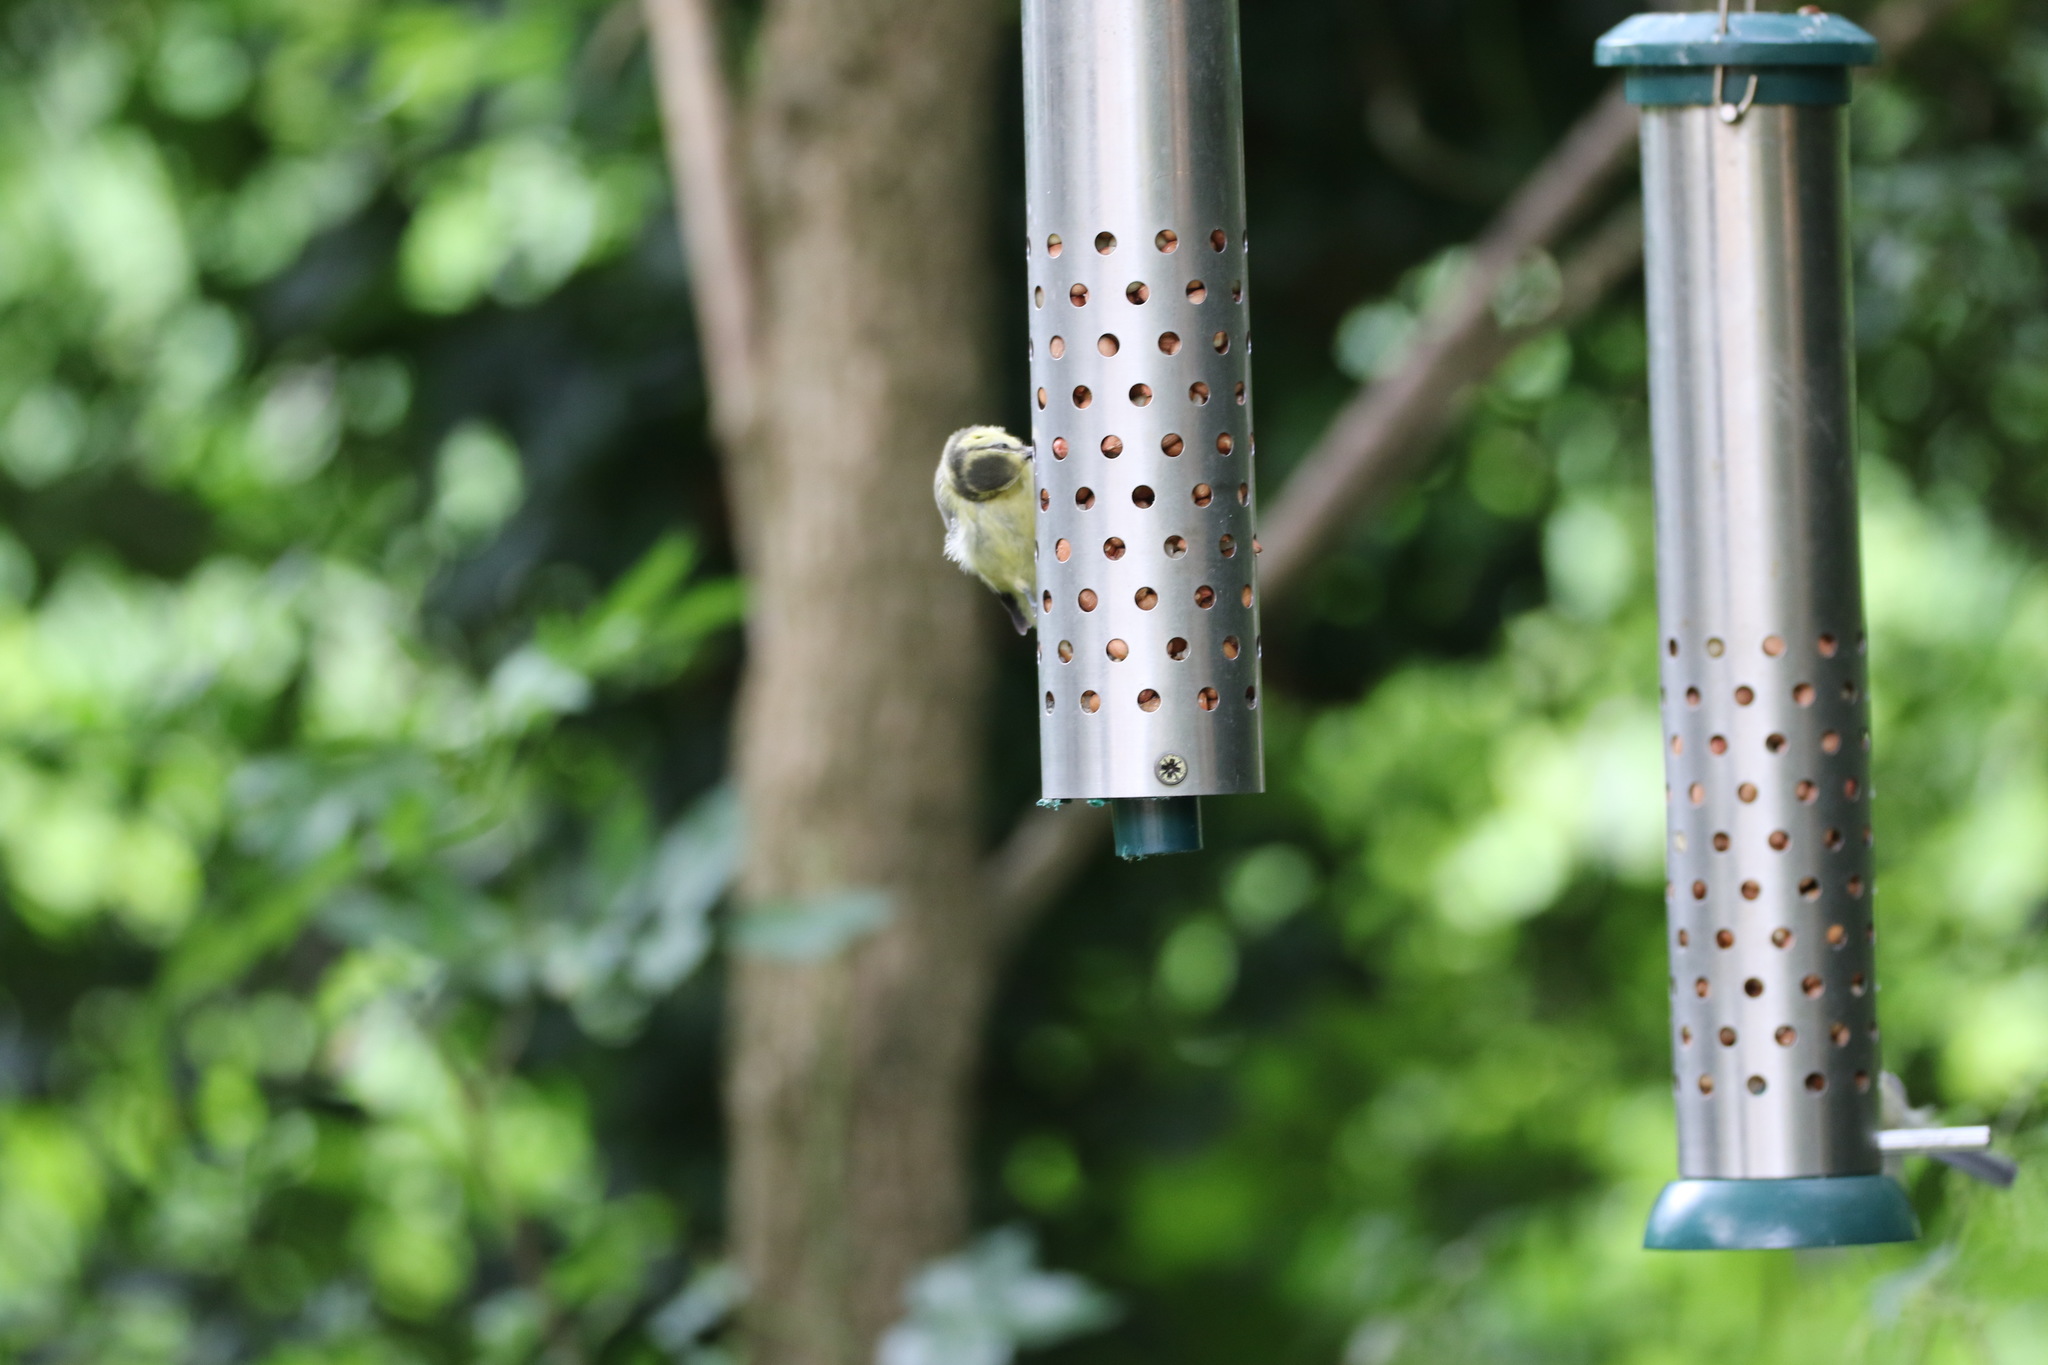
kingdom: Animalia
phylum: Chordata
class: Aves
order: Passeriformes
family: Paridae
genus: Cyanistes
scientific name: Cyanistes caeruleus
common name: Eurasian blue tit
